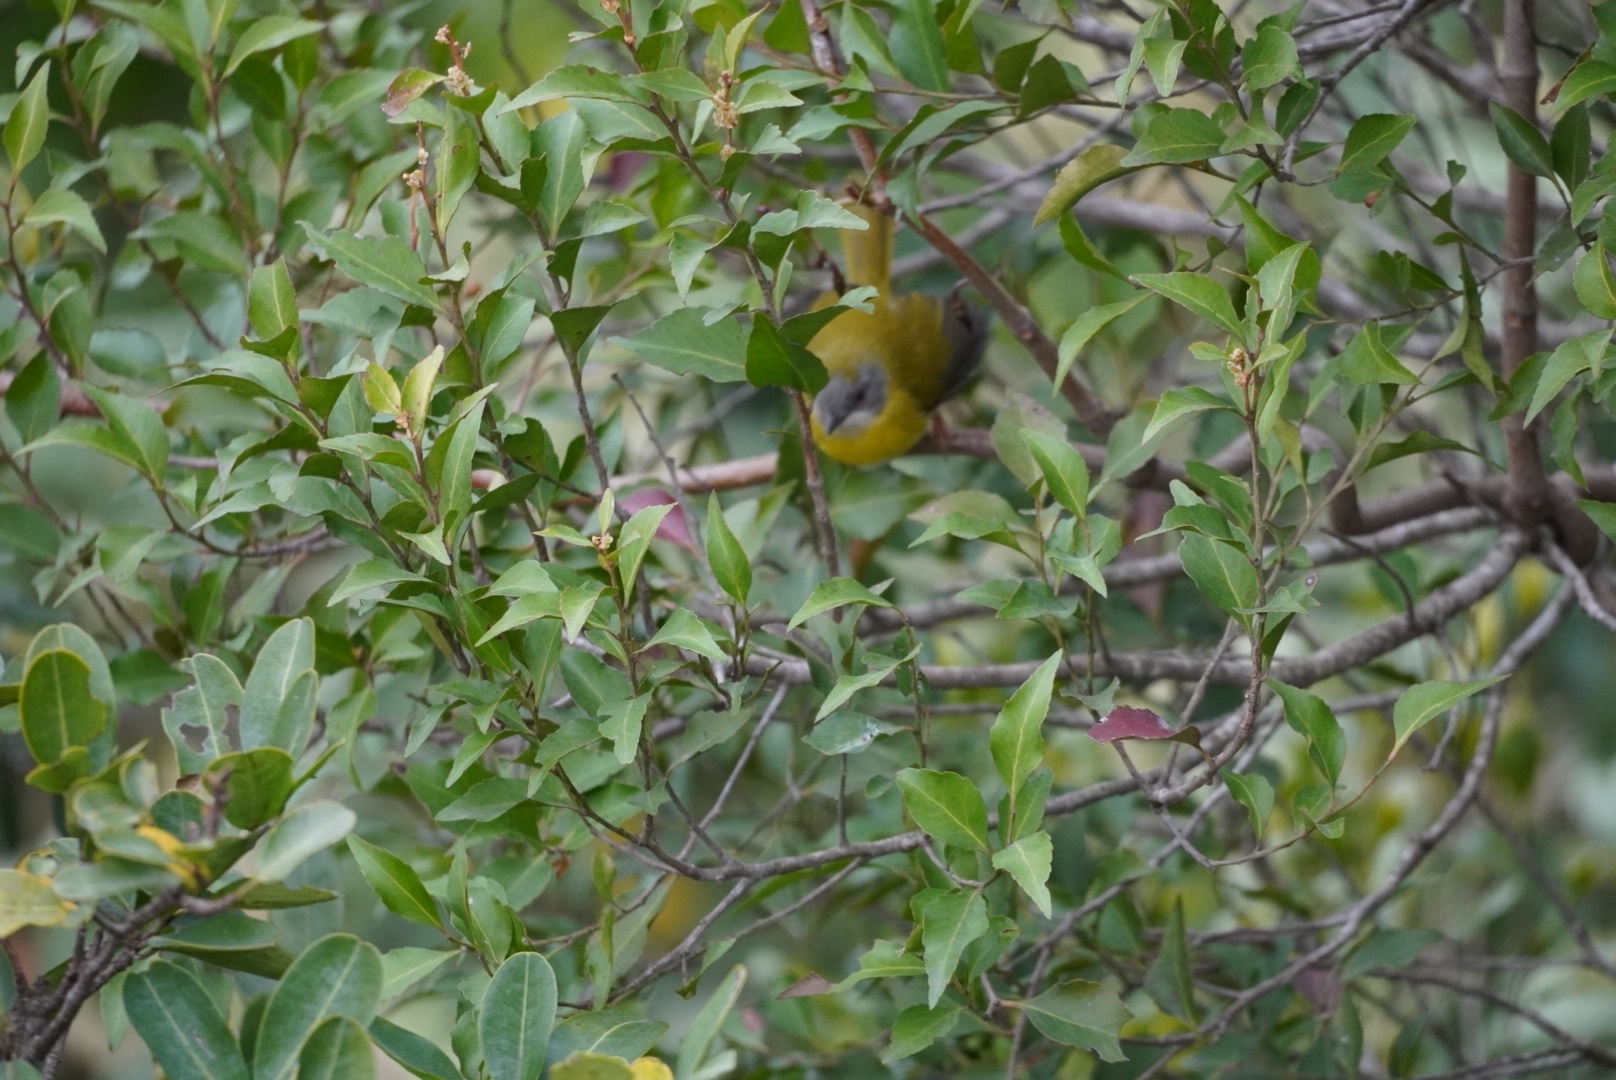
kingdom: Animalia
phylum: Chordata
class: Aves
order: Passeriformes
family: Cisticolidae
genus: Apalis
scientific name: Apalis flavida
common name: Yellow-breasted apalis
